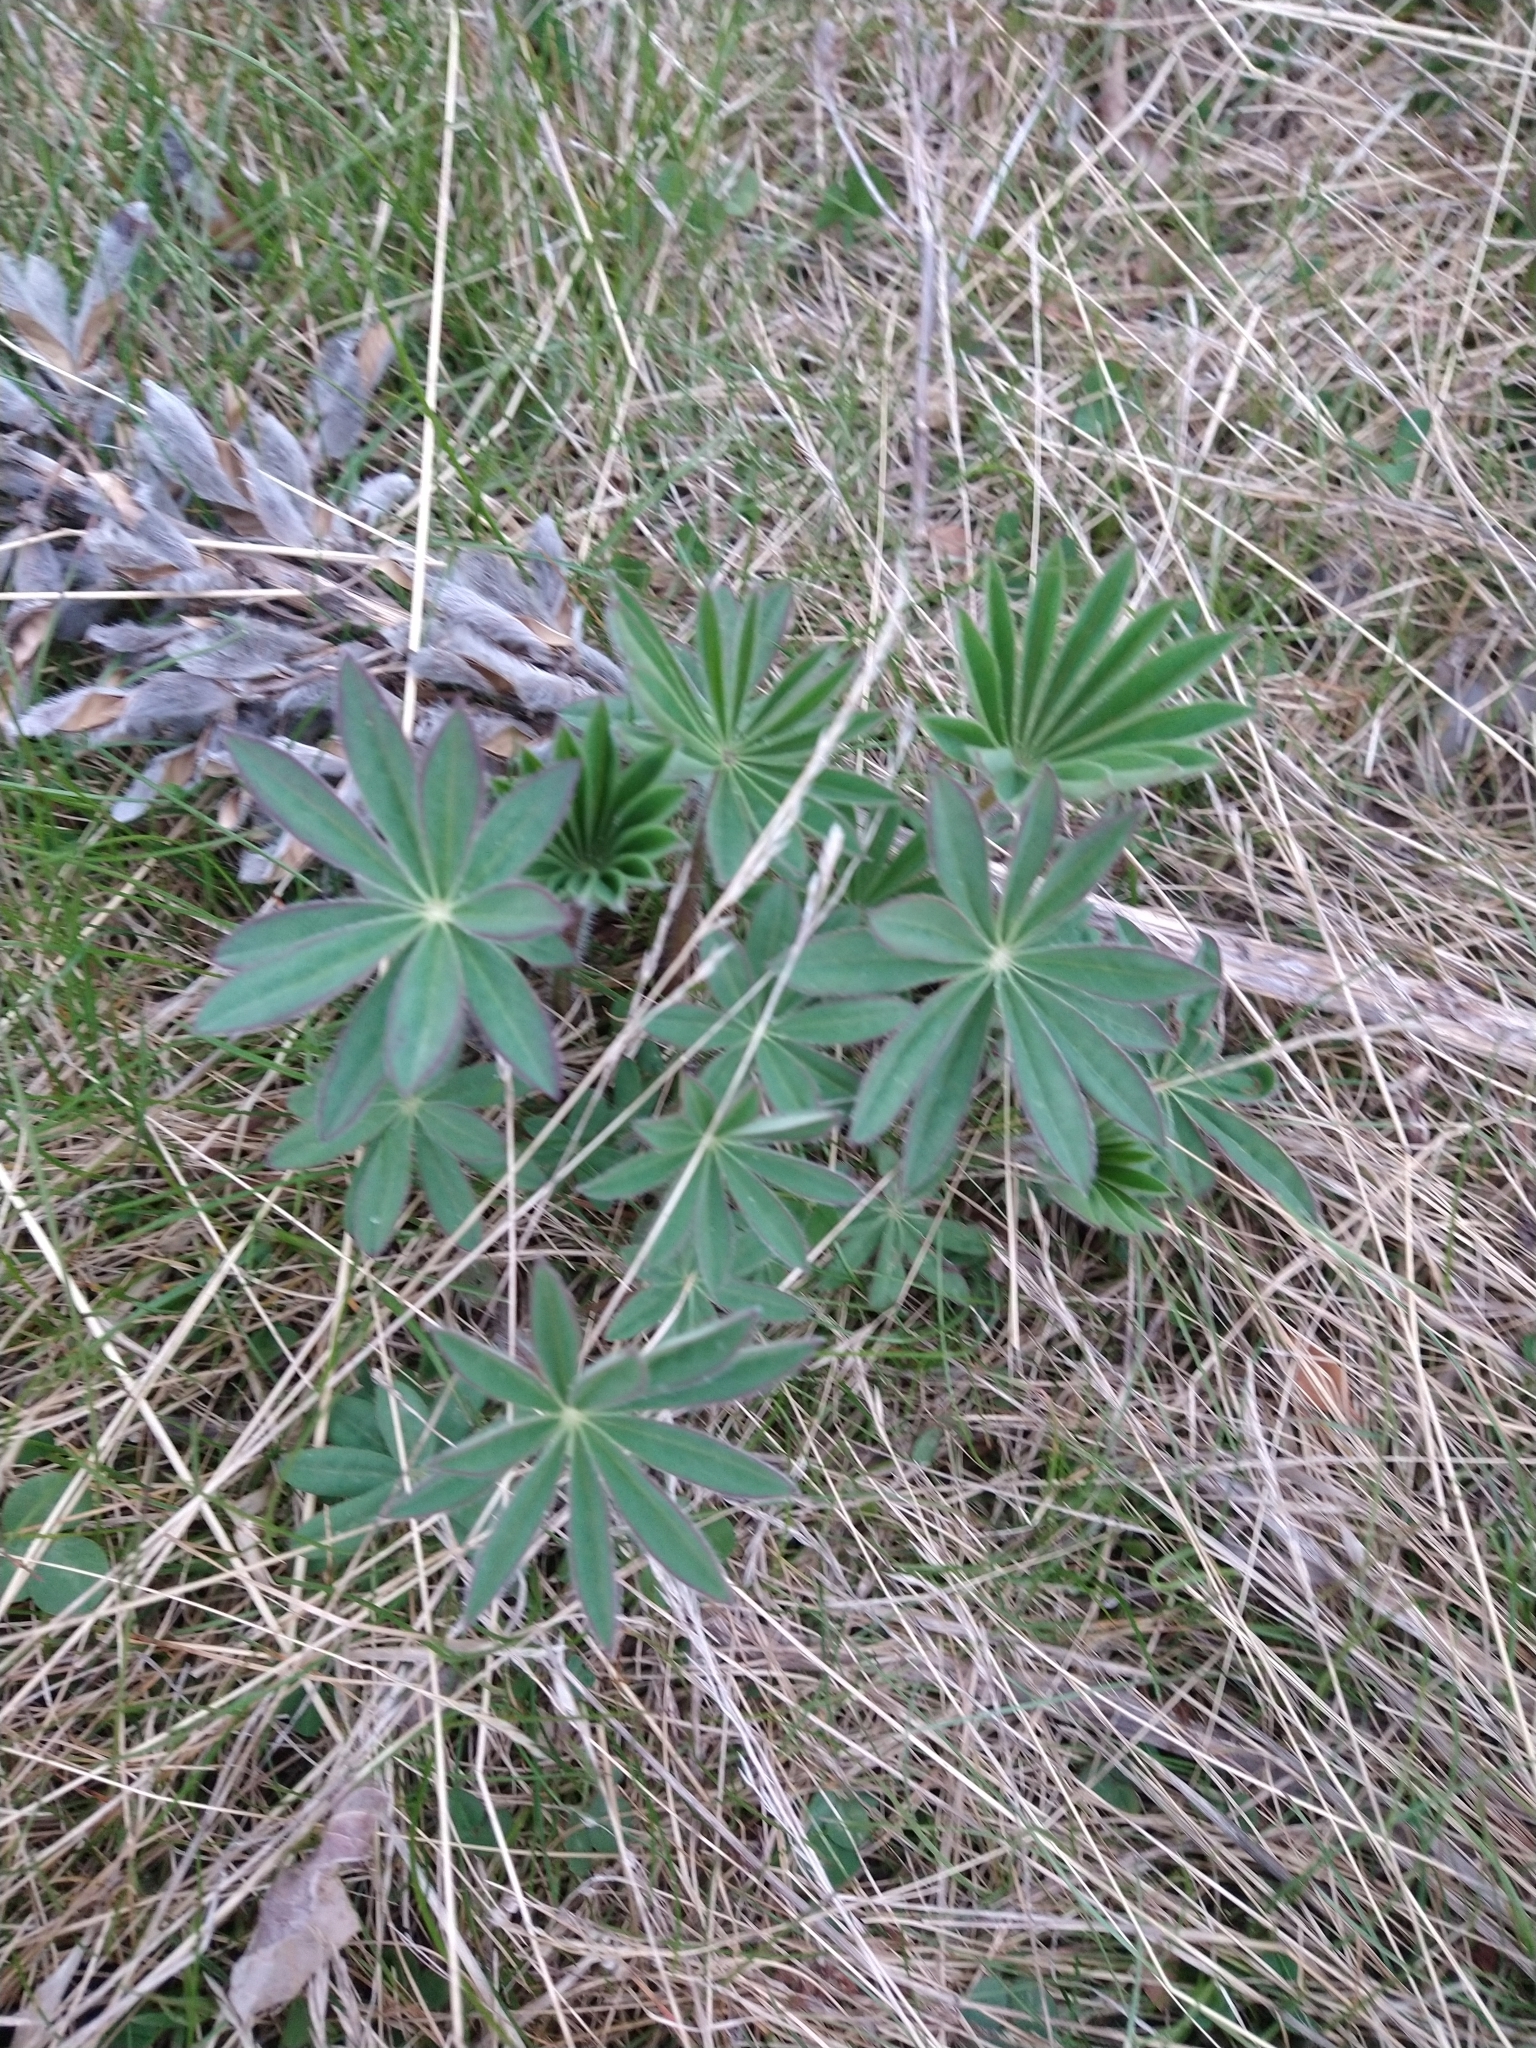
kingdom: Plantae
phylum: Tracheophyta
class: Magnoliopsida
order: Fabales
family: Fabaceae
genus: Lupinus
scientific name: Lupinus polyphyllus
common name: Garden lupin
